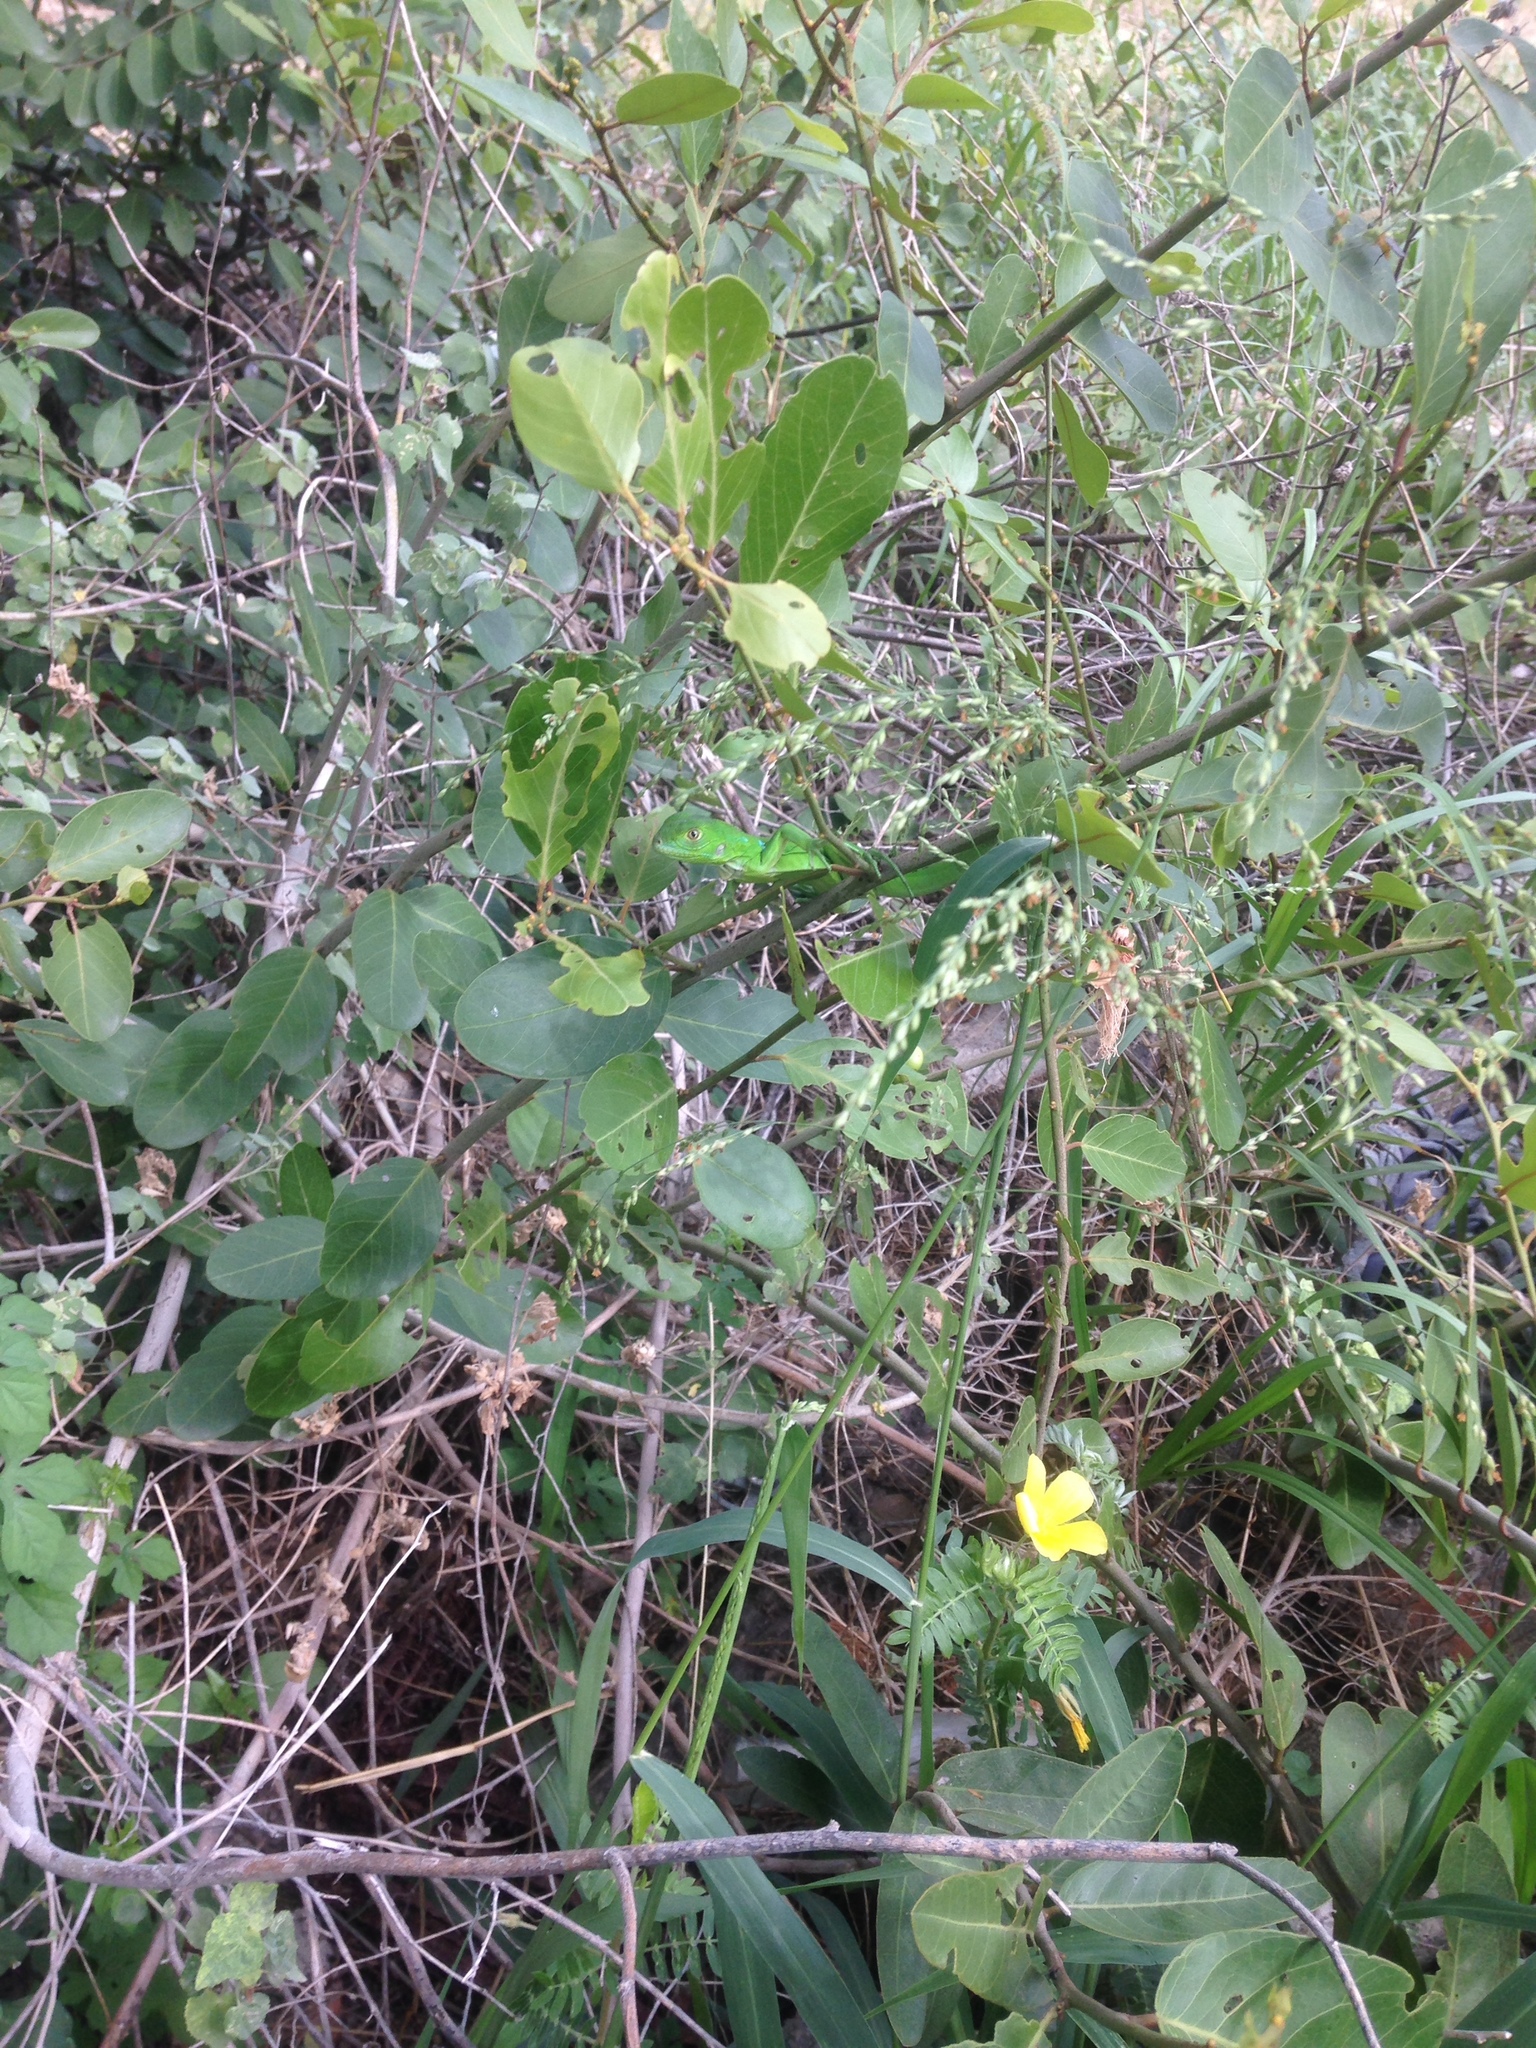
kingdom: Animalia
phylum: Chordata
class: Squamata
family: Iguanidae
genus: Iguana
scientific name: Iguana iguana
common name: Green iguana
